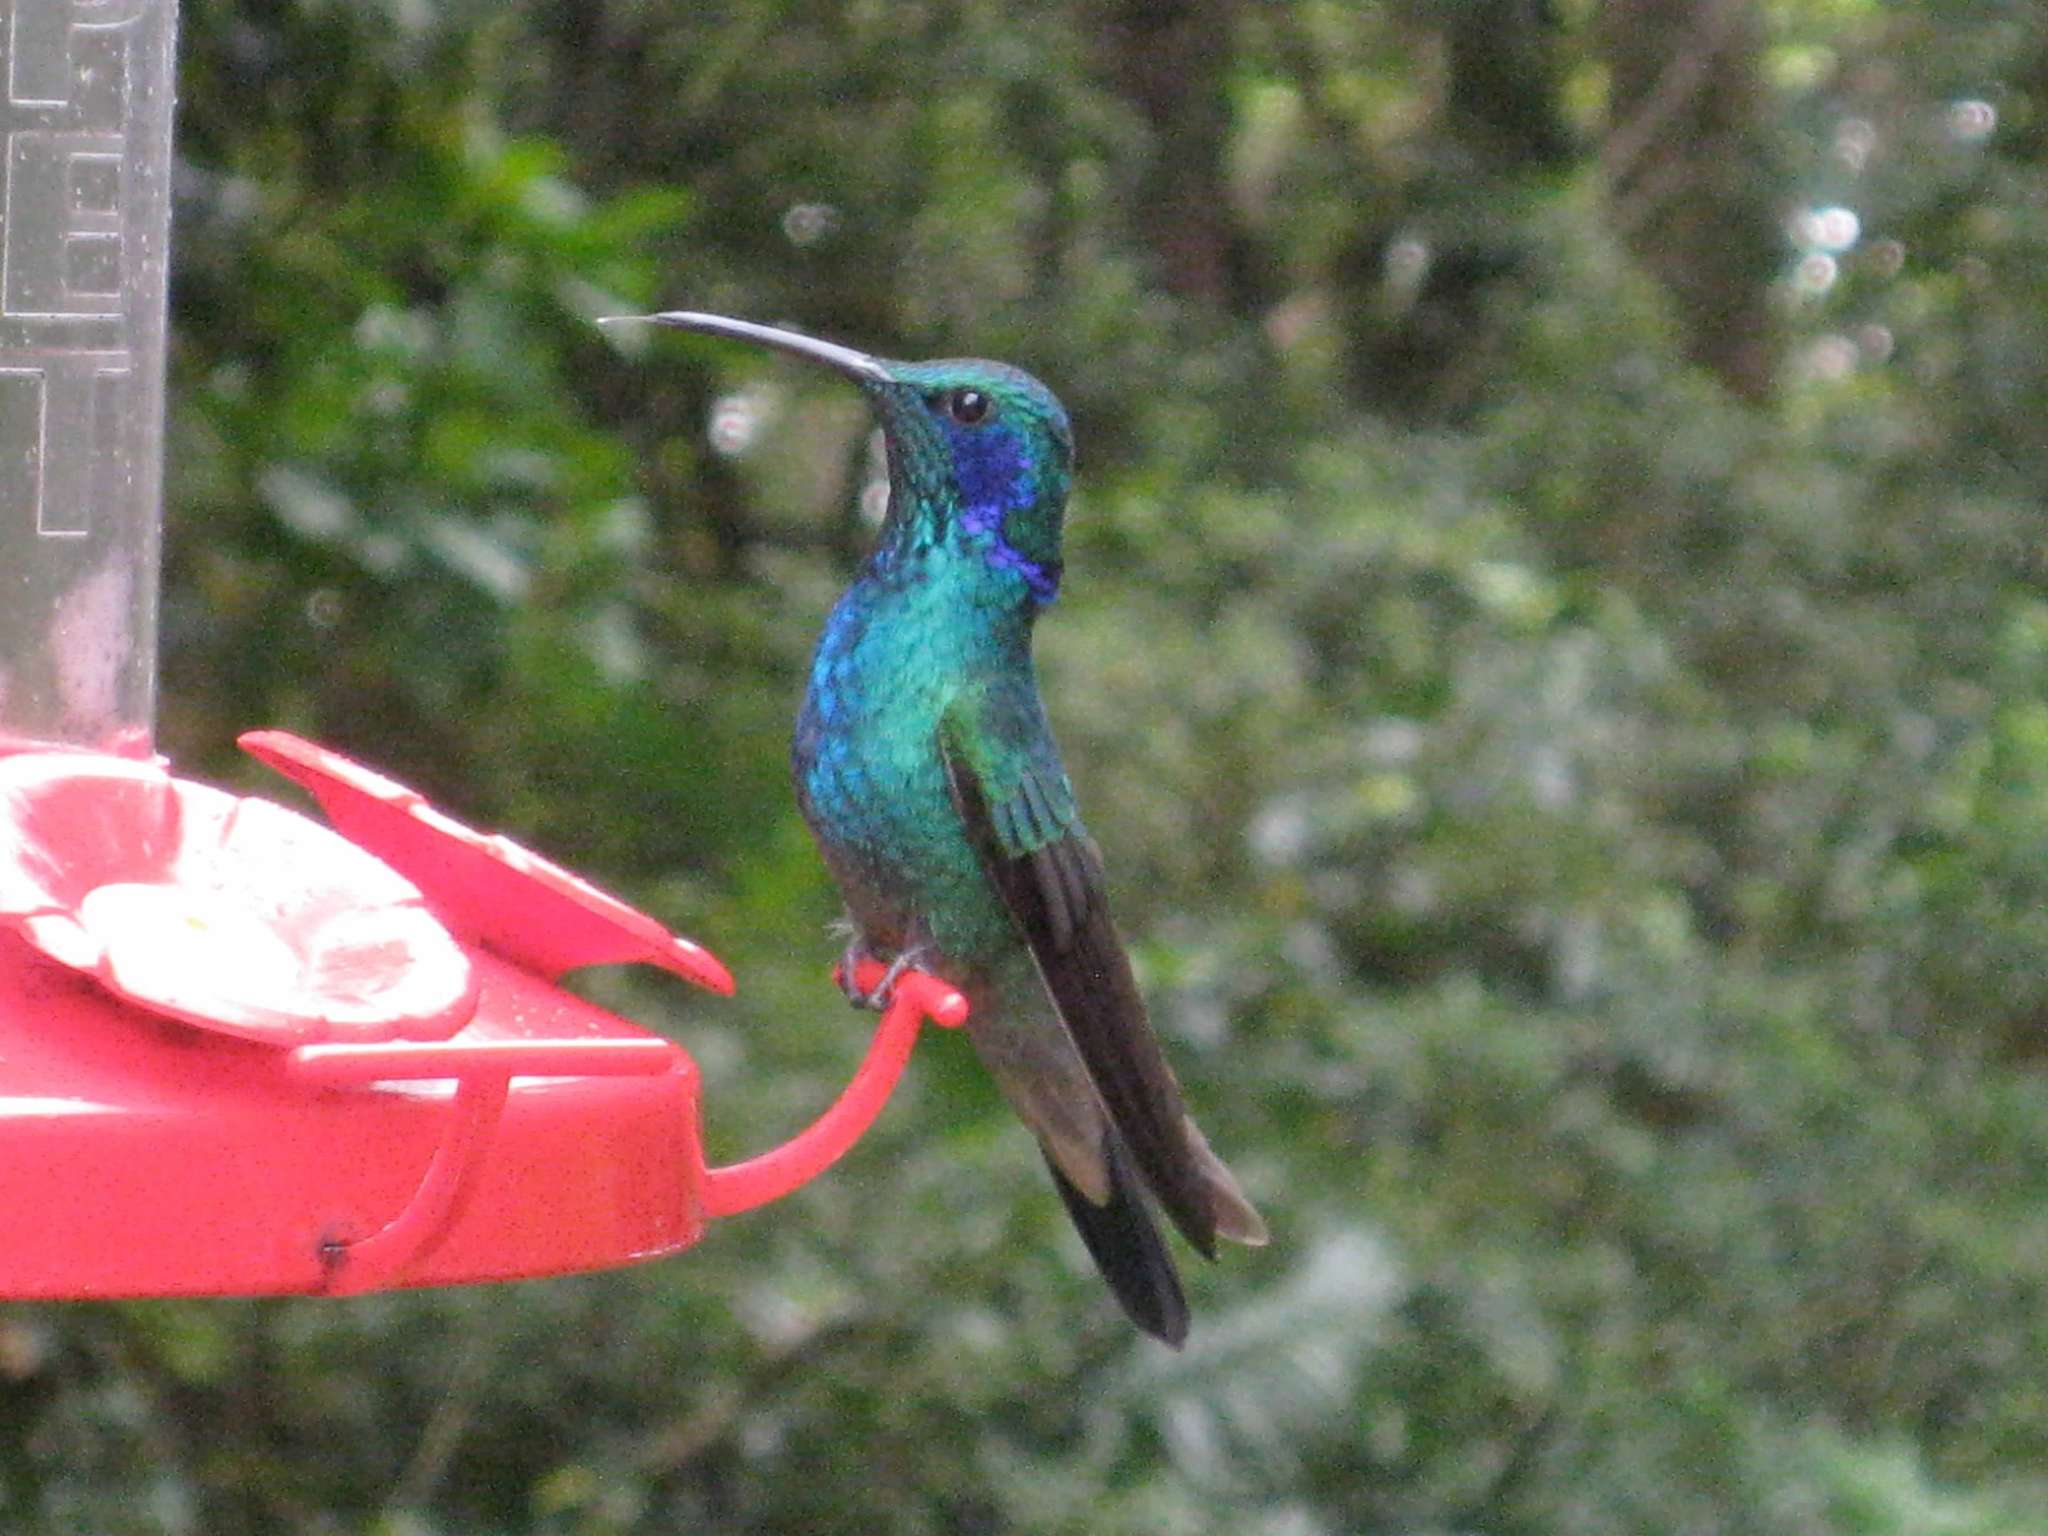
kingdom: Animalia
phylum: Chordata
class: Aves
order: Apodiformes
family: Trochilidae
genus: Colibri
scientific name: Colibri cyanotus
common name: Lesser violetear
